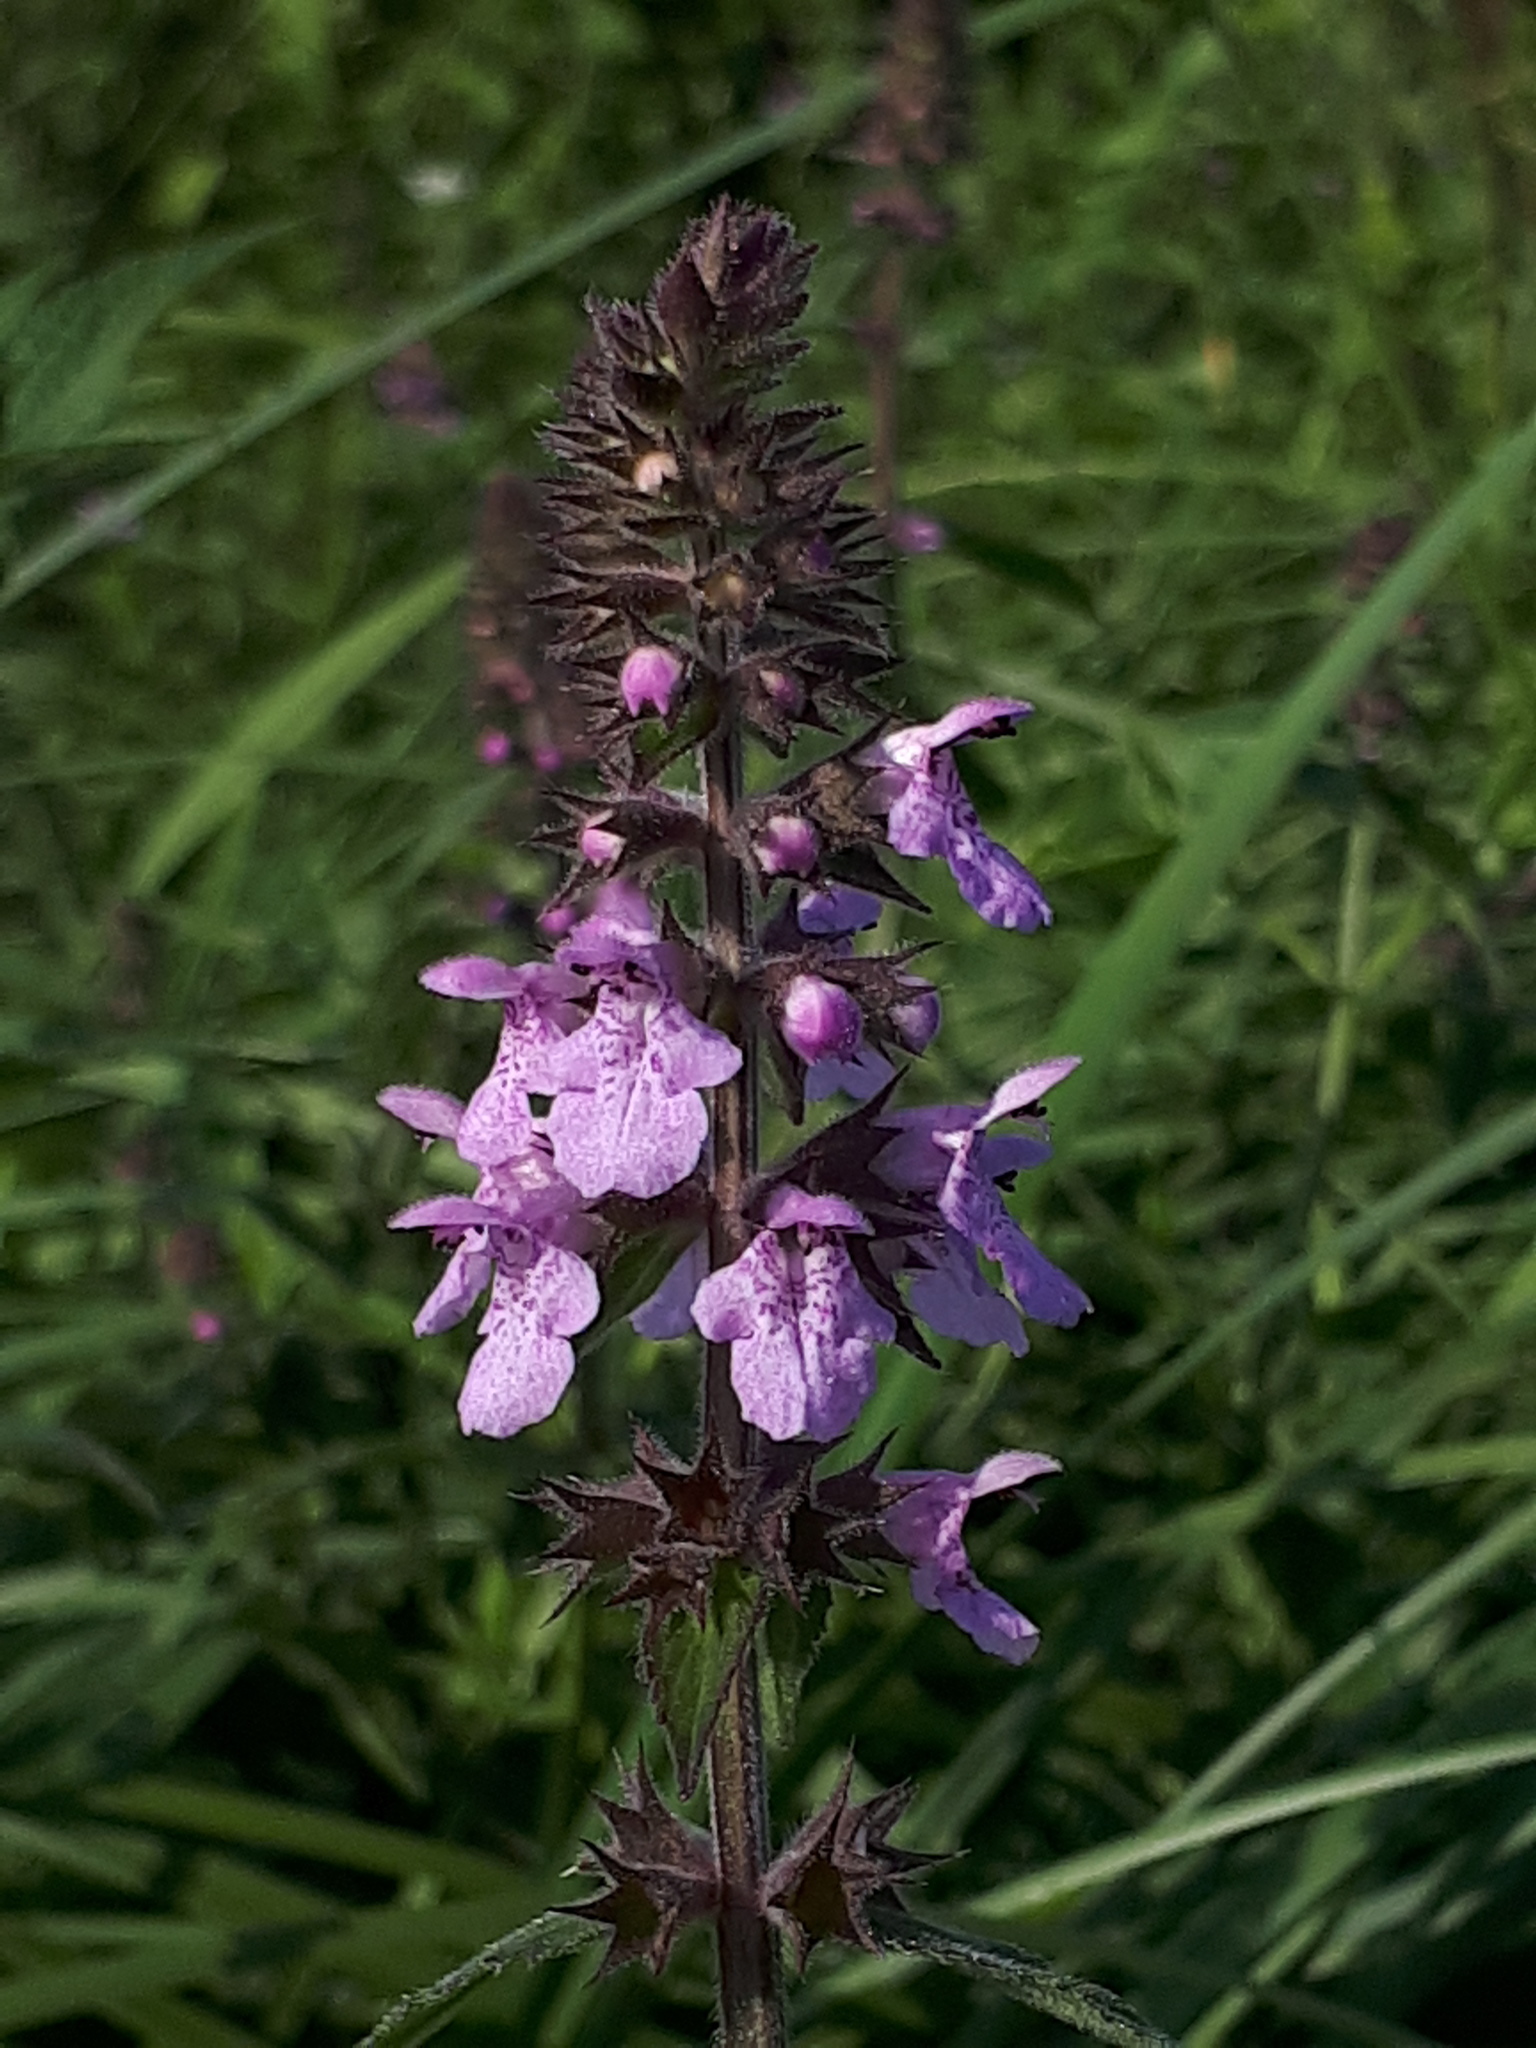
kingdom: Plantae
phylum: Tracheophyta
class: Magnoliopsida
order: Lamiales
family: Lamiaceae
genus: Stachys
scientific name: Stachys palustris
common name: Marsh woundwort
